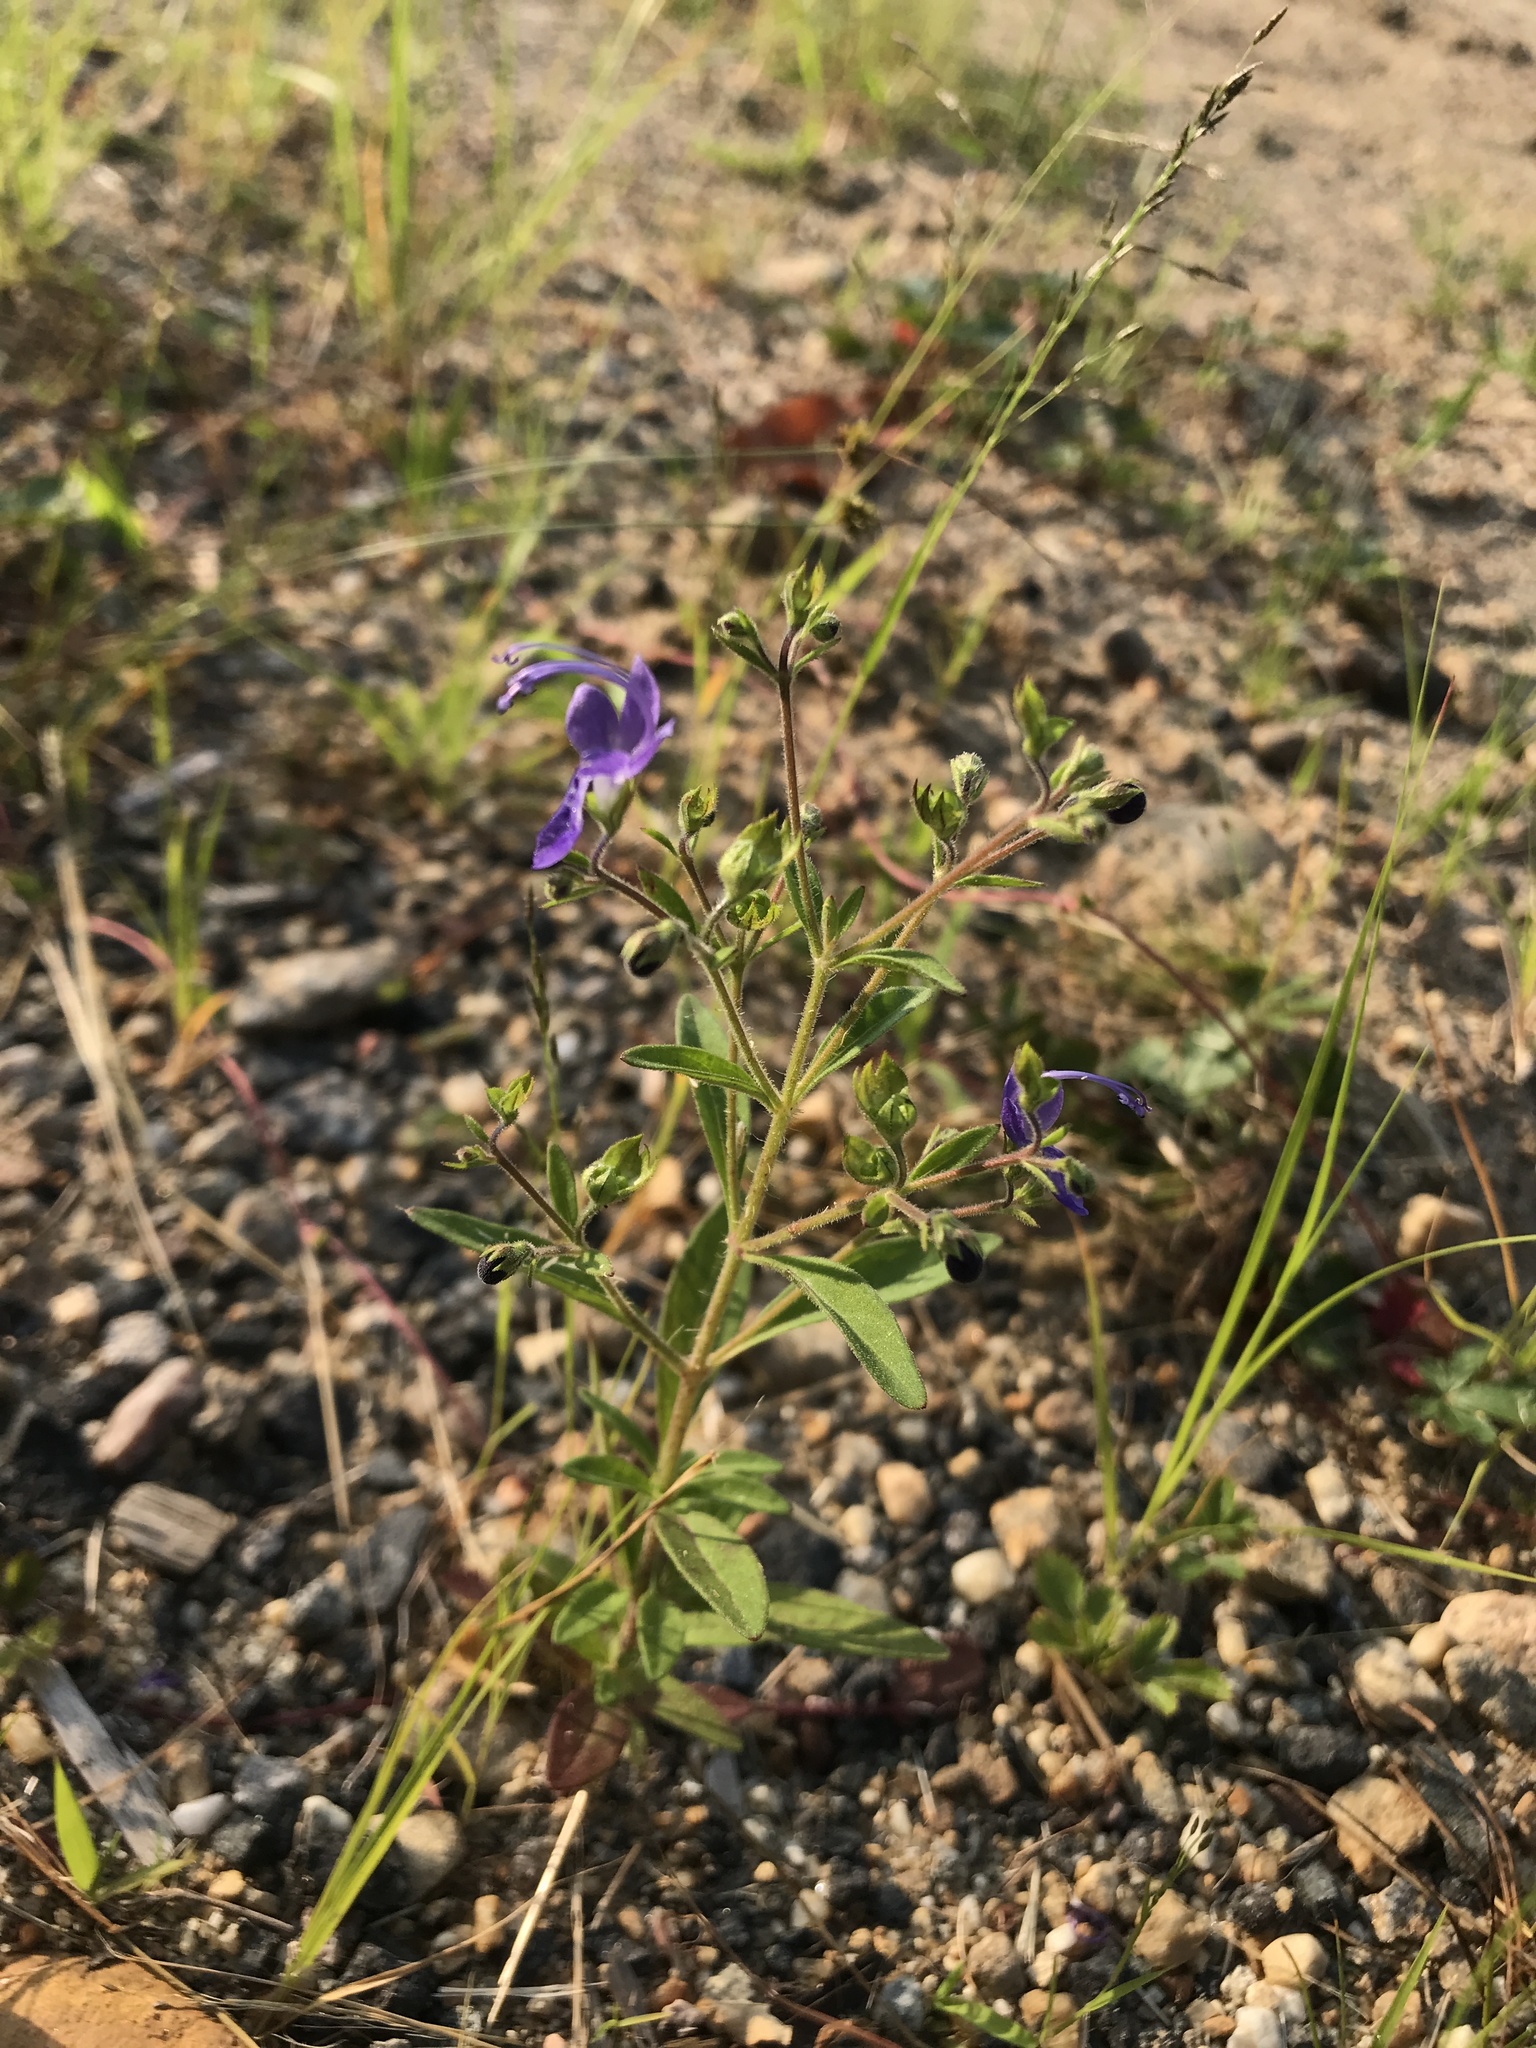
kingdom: Plantae
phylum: Tracheophyta
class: Magnoliopsida
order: Lamiales
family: Lamiaceae
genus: Trichostema
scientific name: Trichostema dichotomum
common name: Bastard pennyroyal
